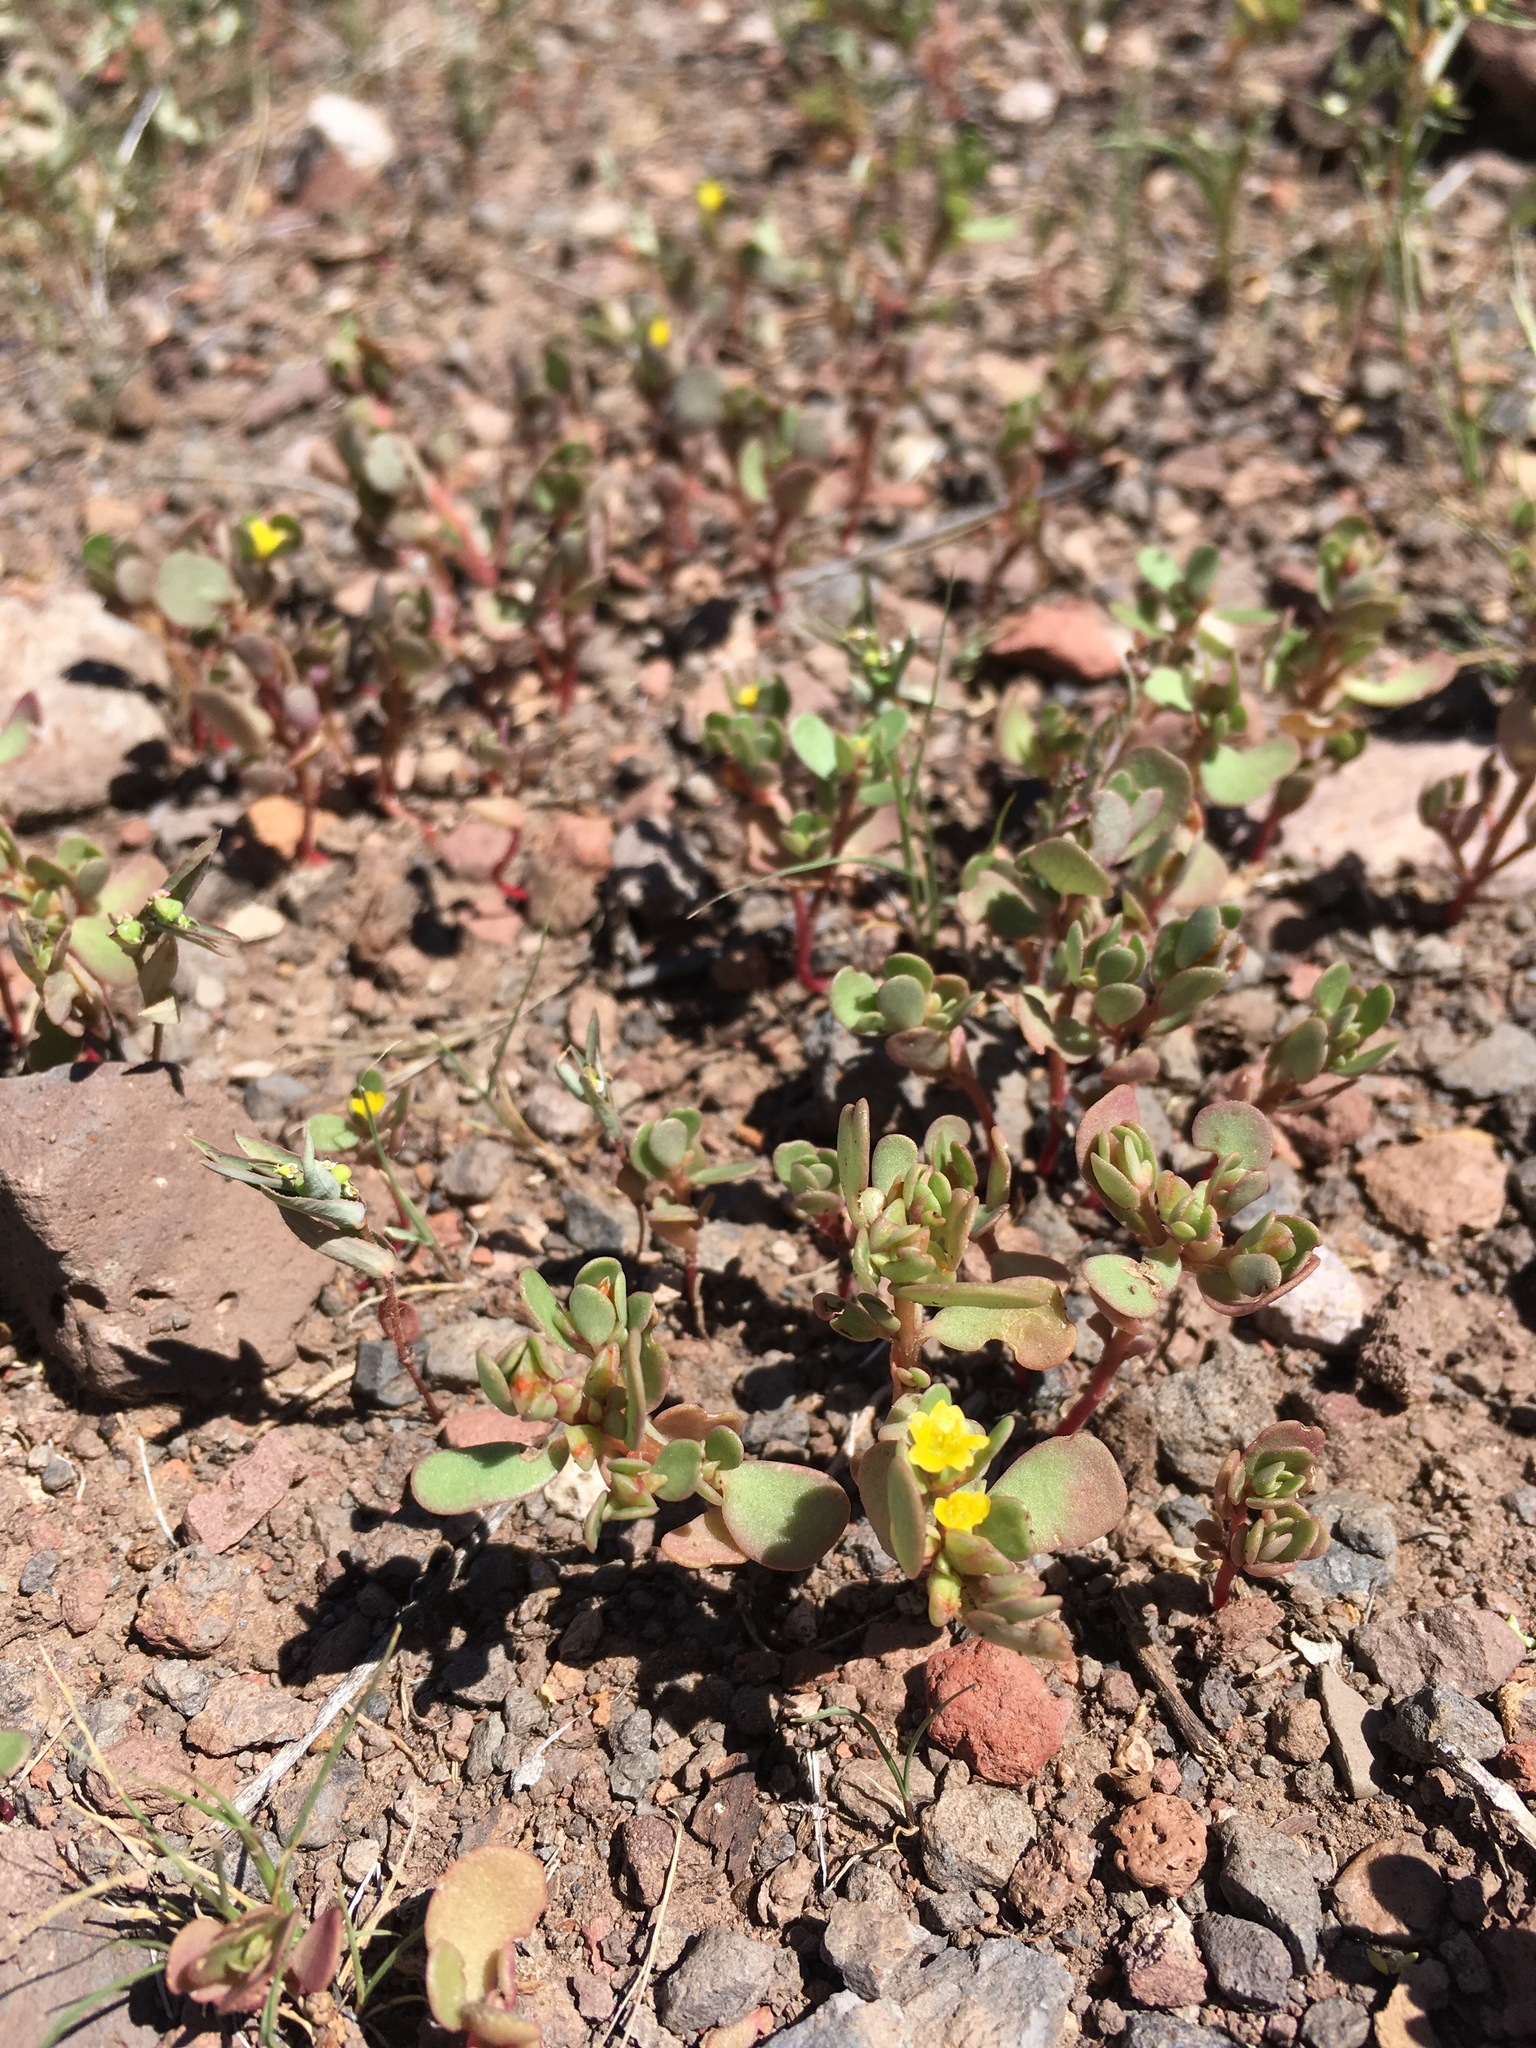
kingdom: Plantae
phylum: Tracheophyta
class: Magnoliopsida
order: Caryophyllales
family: Portulacaceae
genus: Portulaca
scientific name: Portulaca oleracea
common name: Common purslane
